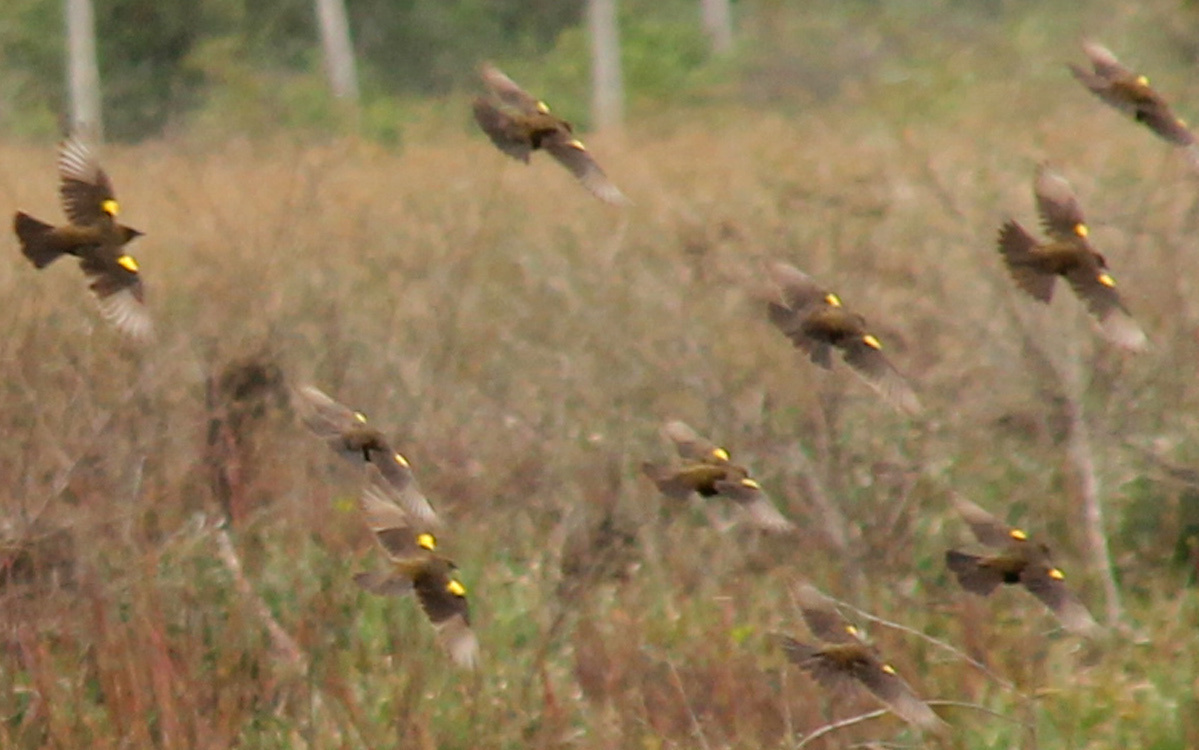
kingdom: Animalia
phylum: Chordata
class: Aves
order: Passeriformes
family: Icteridae
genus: Pseudoleistes
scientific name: Pseudoleistes virescens
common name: Brown-and-yellow marshbird
